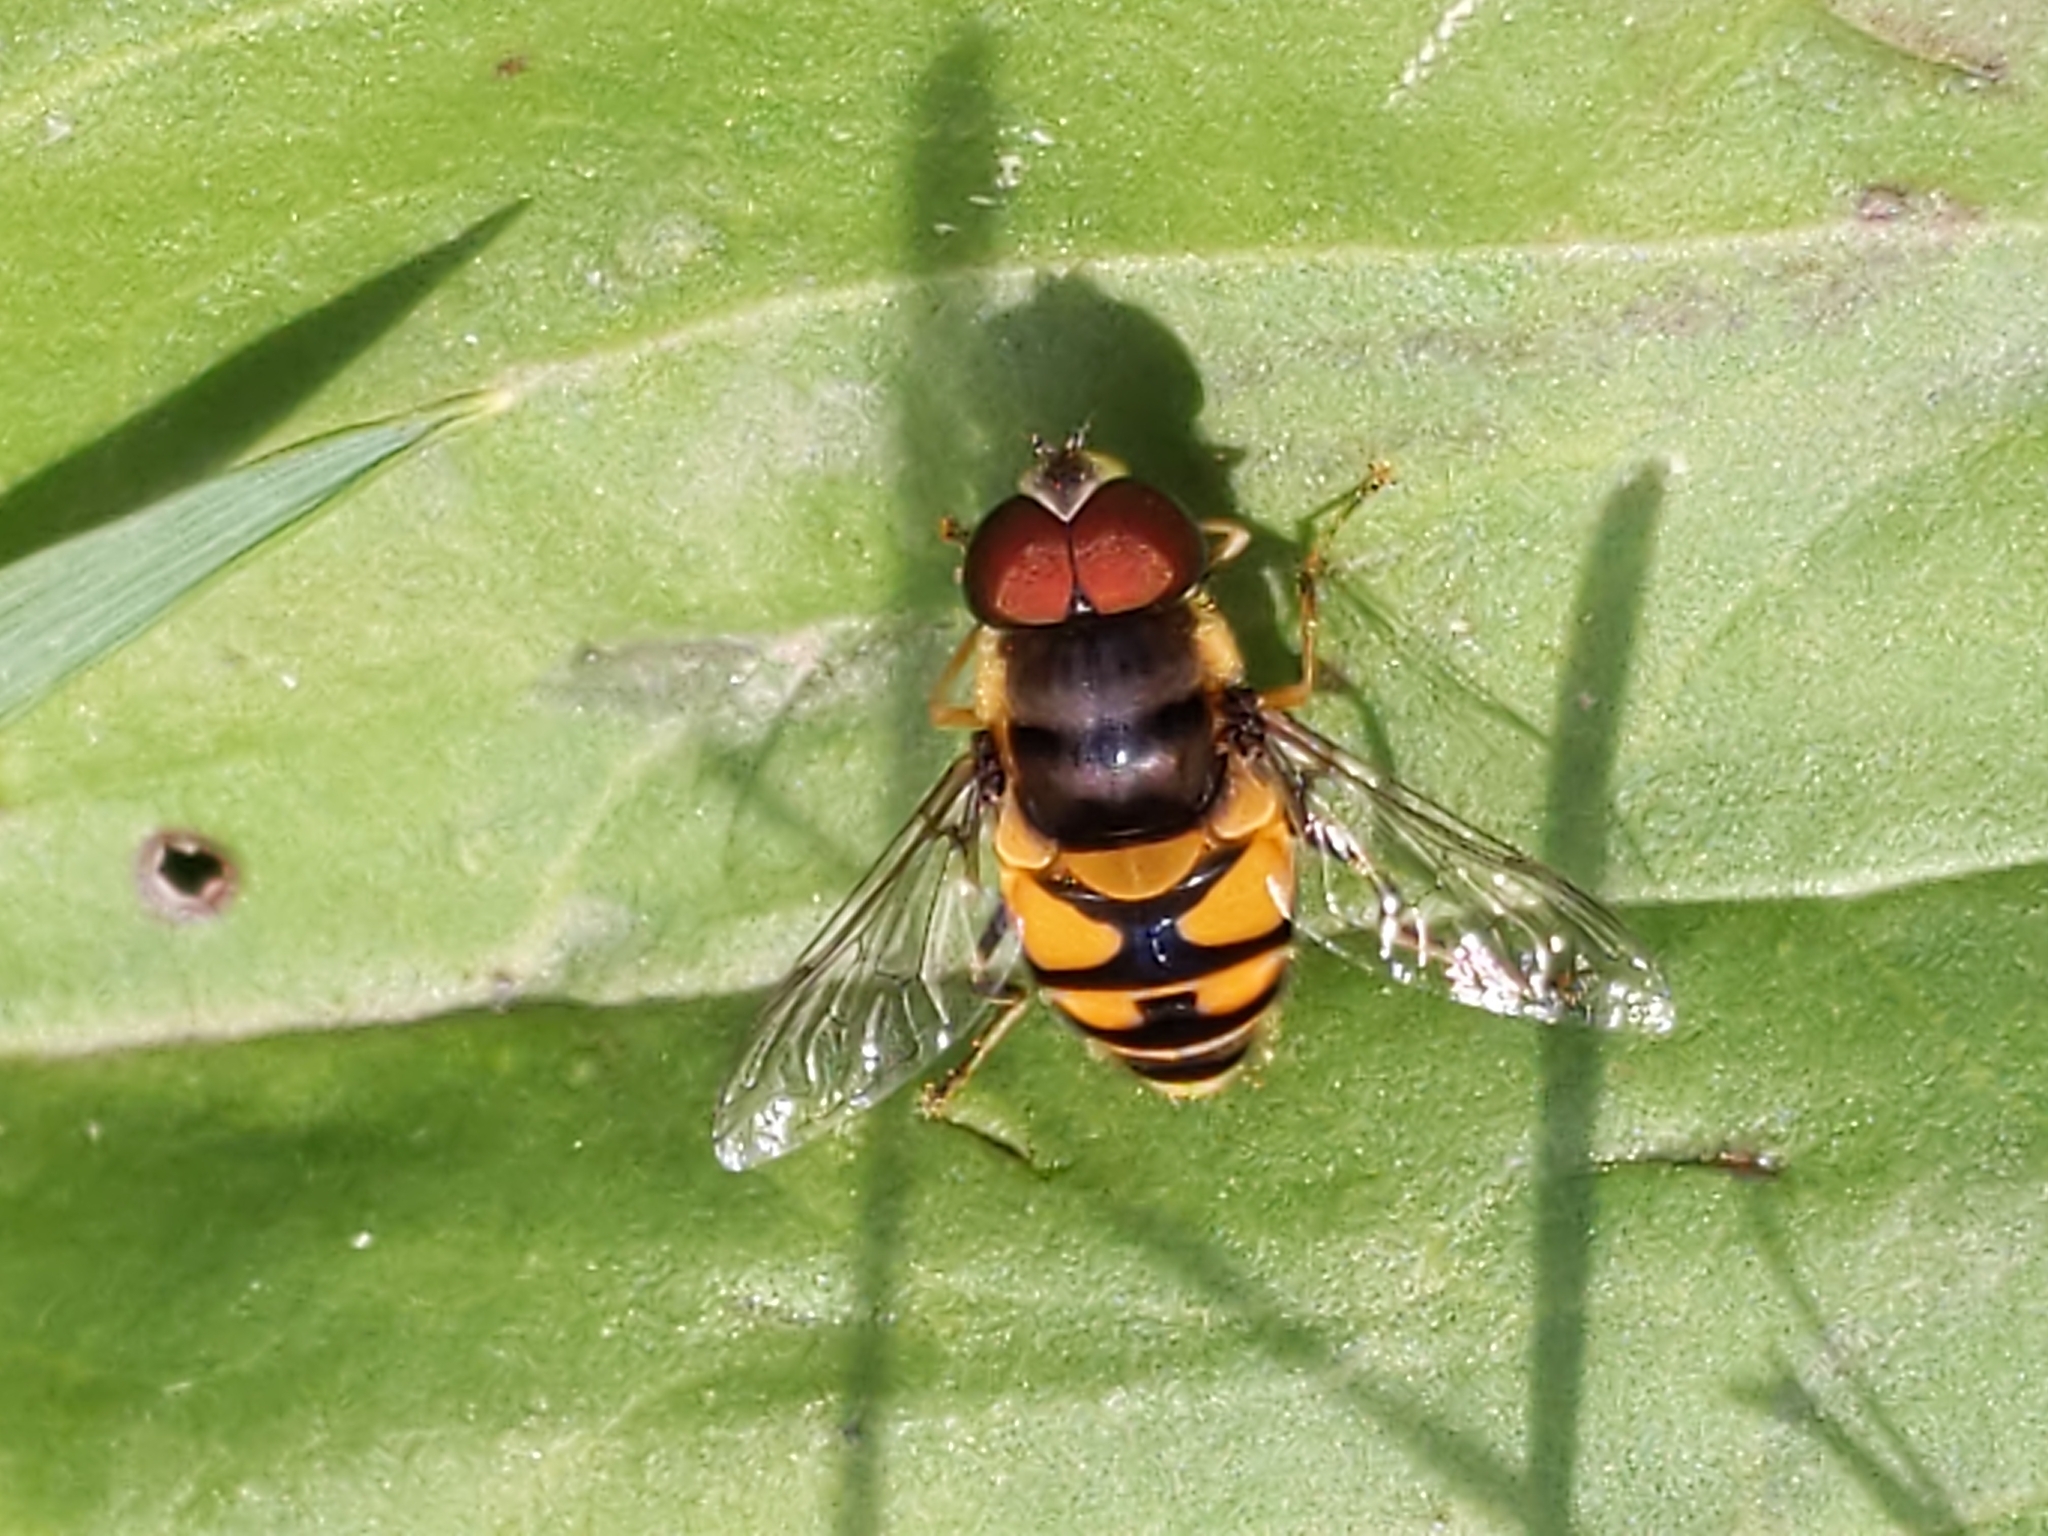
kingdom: Animalia
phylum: Arthropoda
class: Insecta
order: Diptera
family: Syrphidae
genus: Eristalis
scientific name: Eristalis transversa
